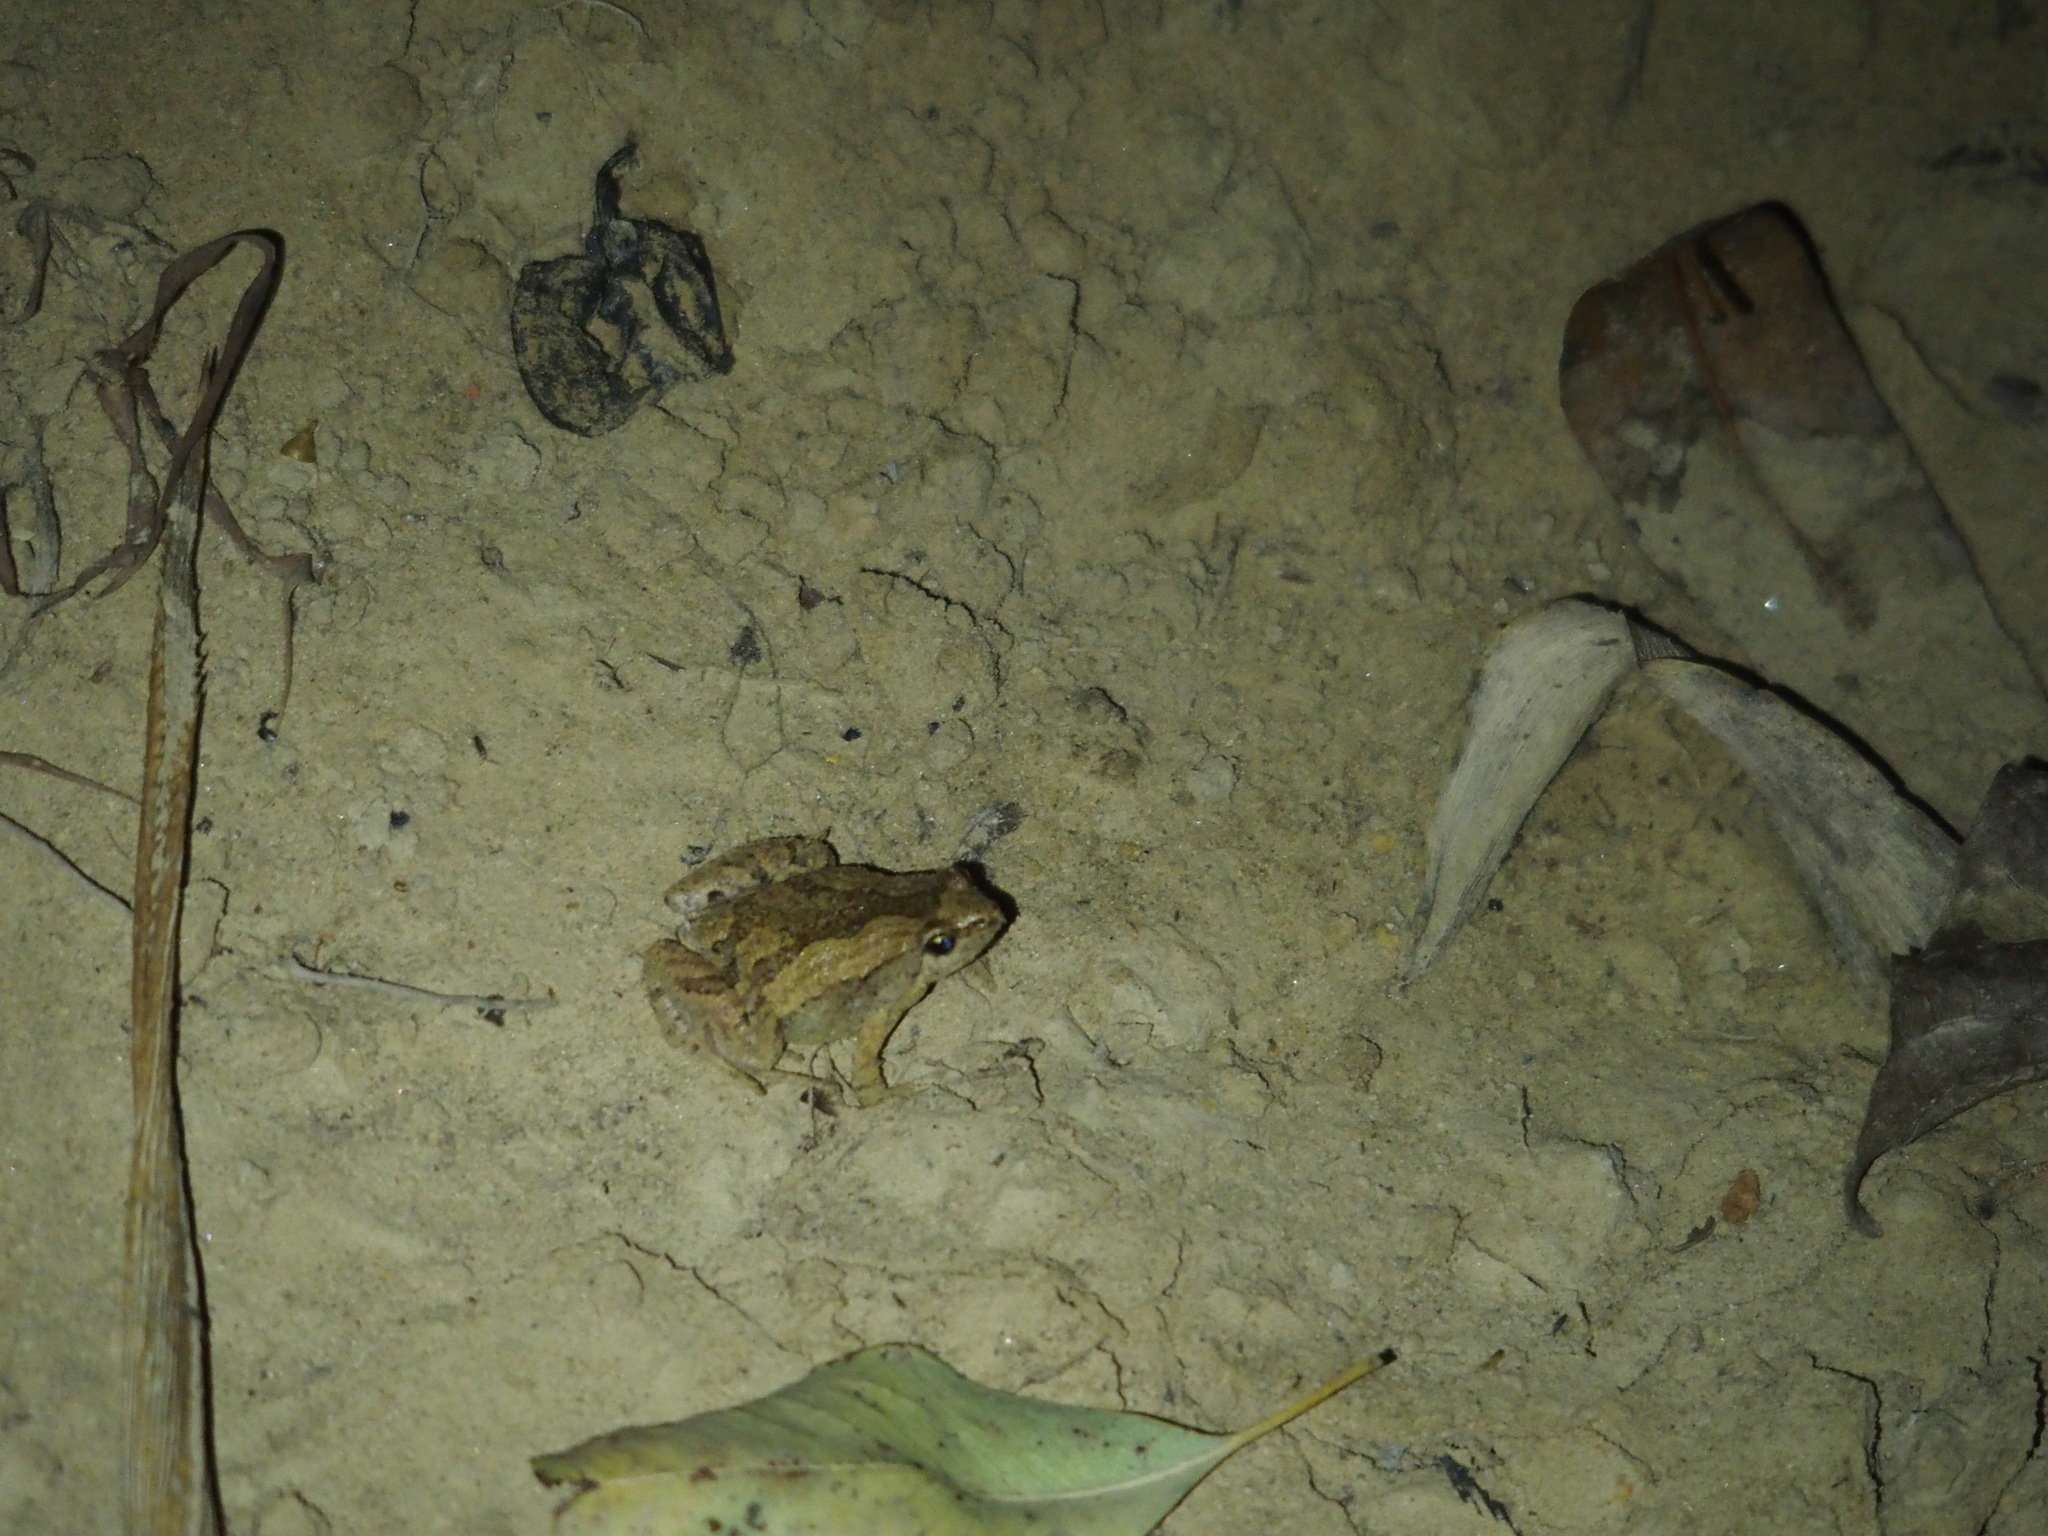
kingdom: Animalia
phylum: Chordata
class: Amphibia
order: Anura
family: Microhylidae
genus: Microhyla
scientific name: Microhyla fissipes
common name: Ornate narrow-mouthed frog
